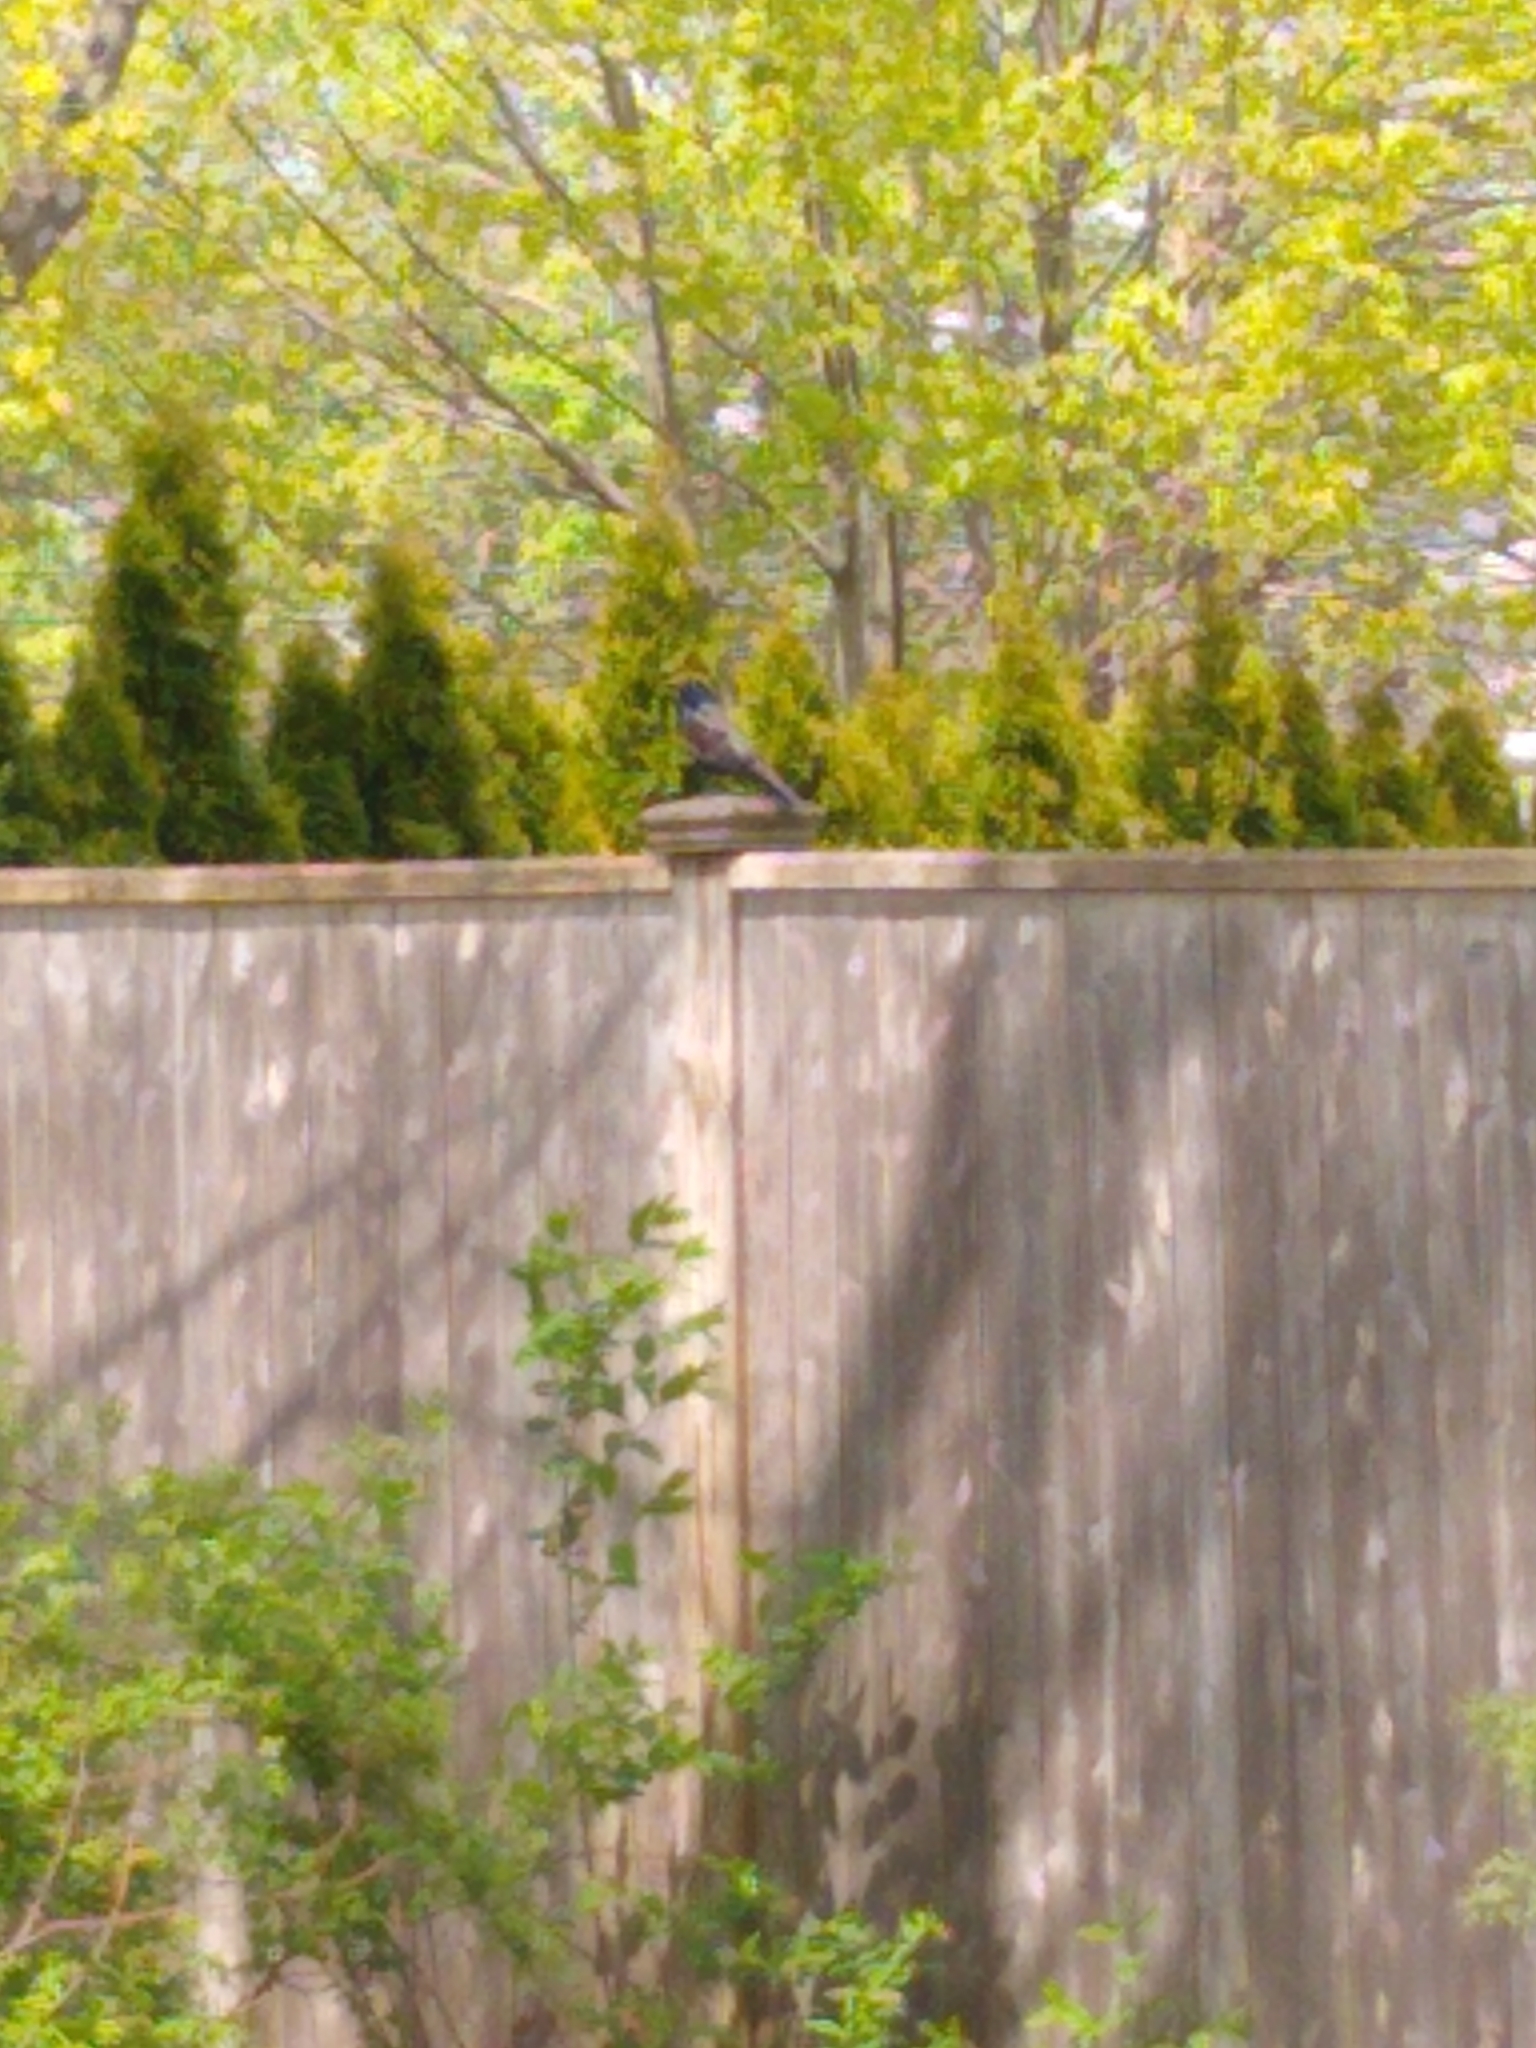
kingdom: Animalia
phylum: Chordata
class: Aves
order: Passeriformes
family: Icteridae
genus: Quiscalus
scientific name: Quiscalus quiscula
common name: Common grackle
